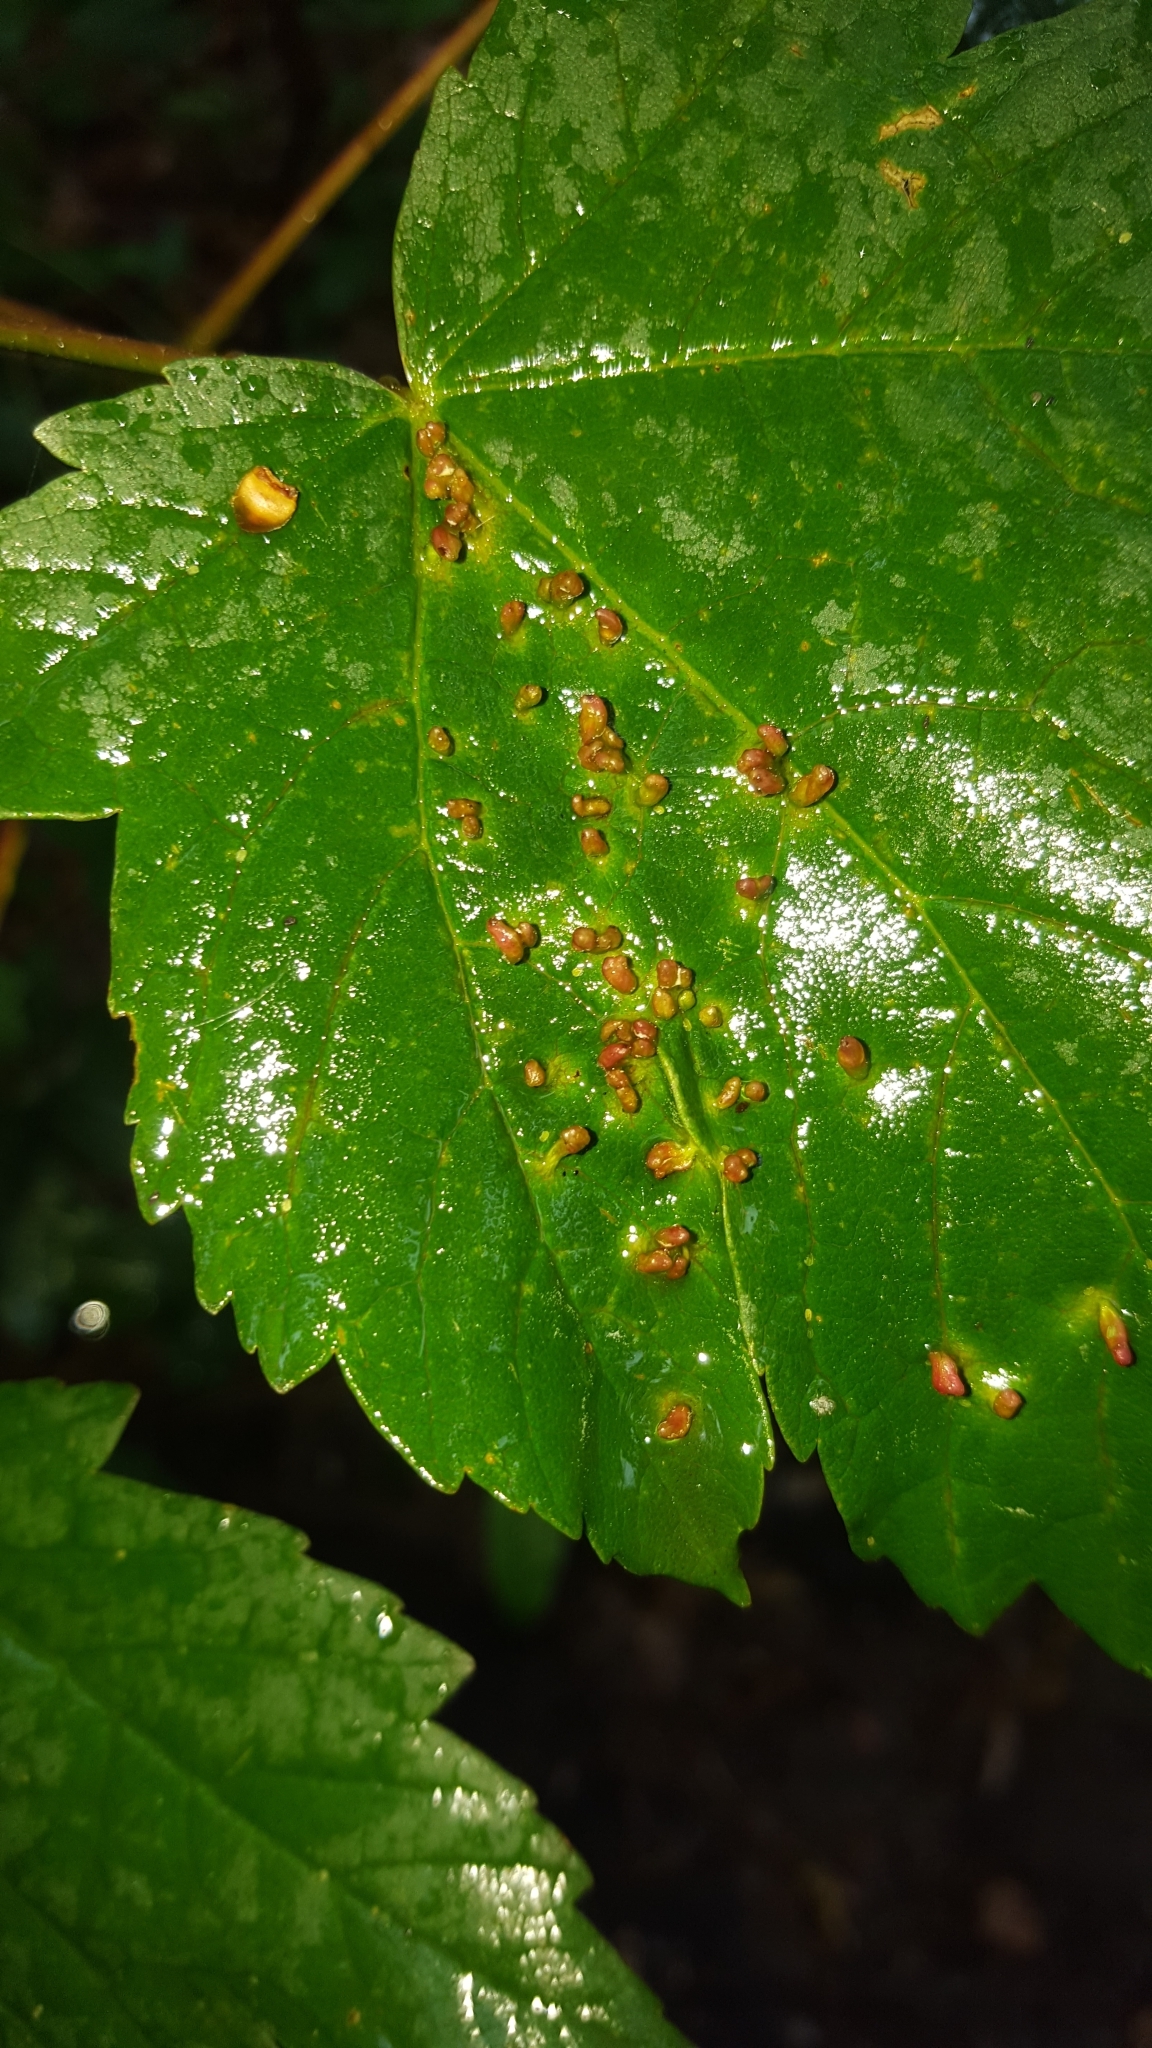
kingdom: Animalia
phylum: Arthropoda
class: Arachnida
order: Trombidiformes
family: Eriophyidae
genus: Aceria
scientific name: Aceria cephaloneus
